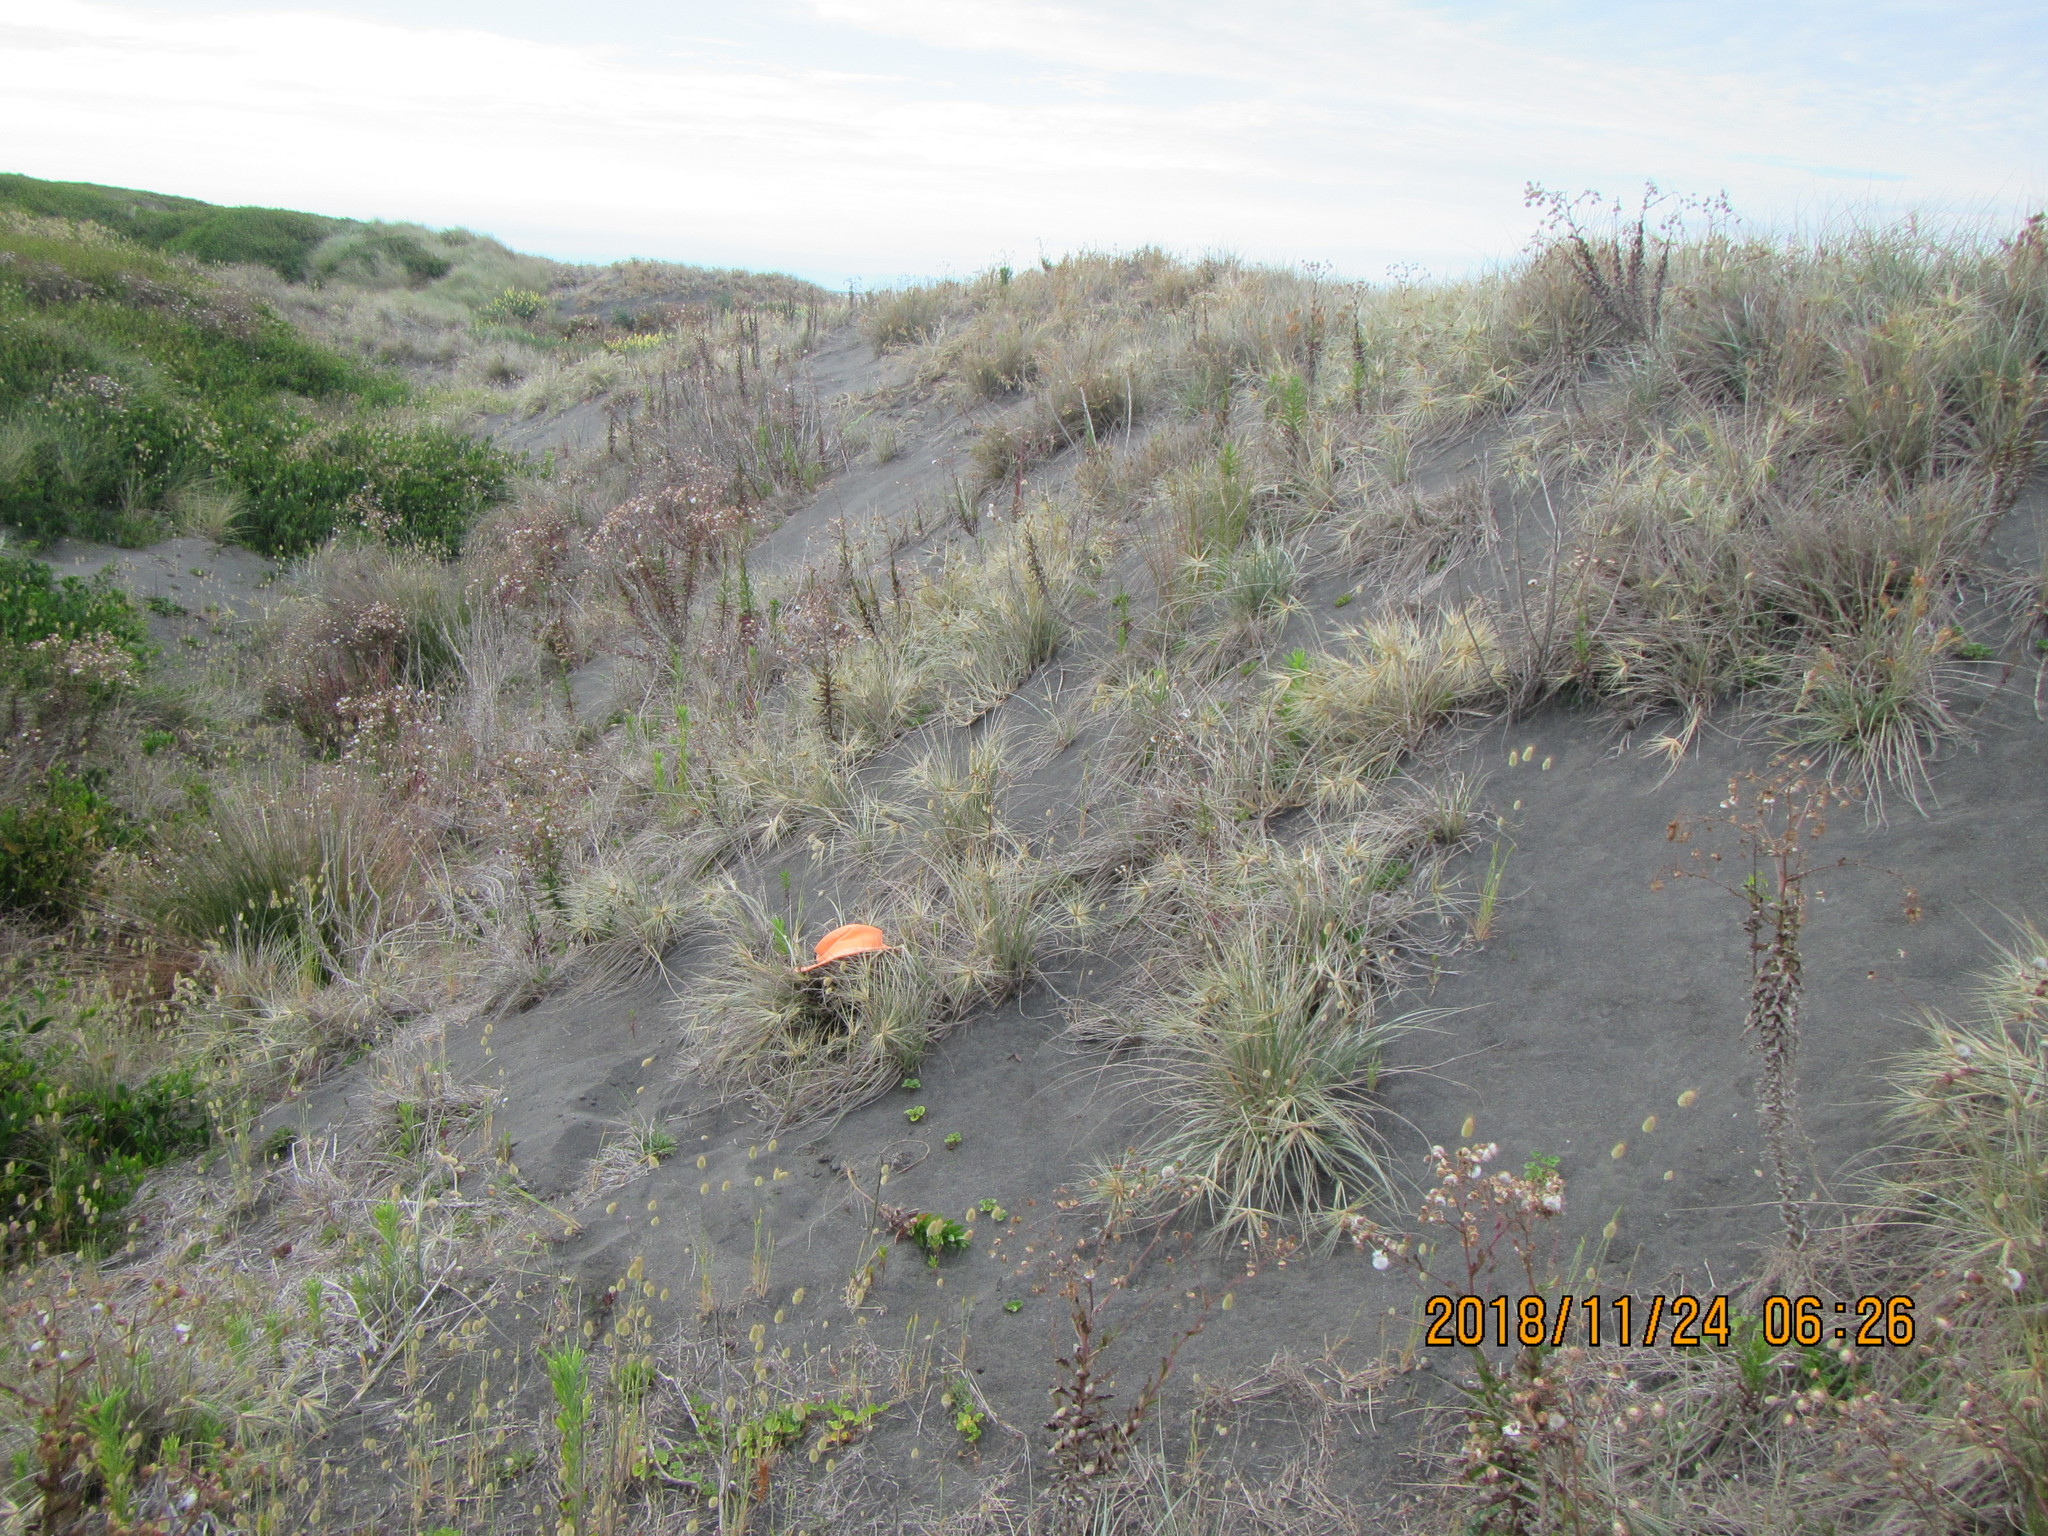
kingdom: Animalia
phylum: Arthropoda
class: Arachnida
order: Opiliones
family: Phalangiidae
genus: Phalangium
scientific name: Phalangium opilio
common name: Daddy longleg
